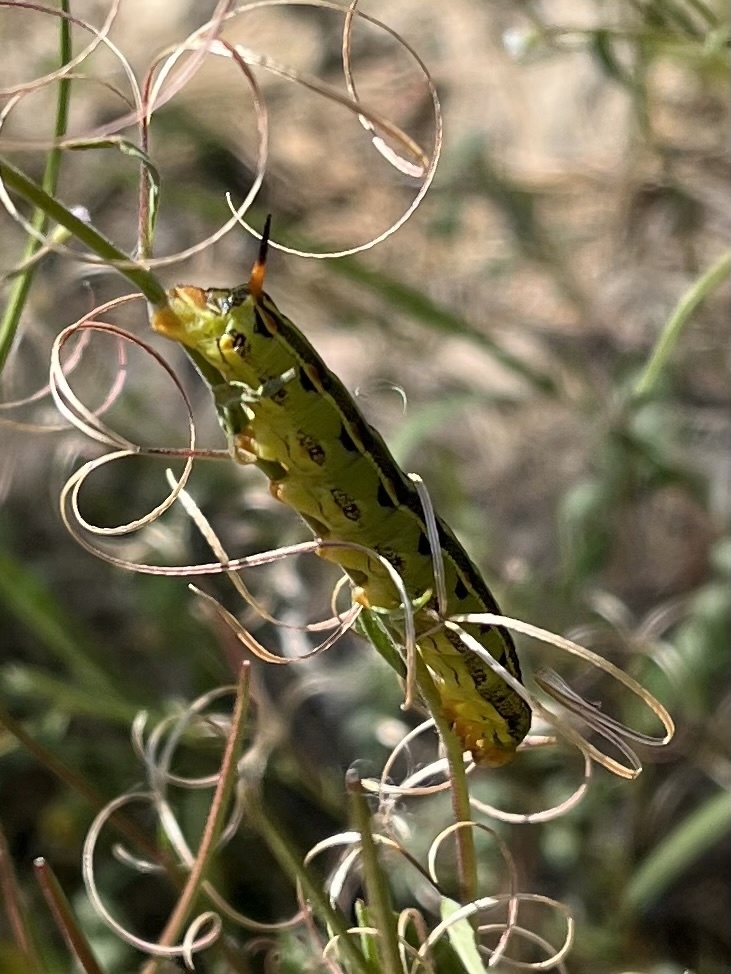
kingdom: Animalia
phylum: Arthropoda
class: Insecta
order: Lepidoptera
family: Sphingidae
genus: Hyles
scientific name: Hyles lineata
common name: White-lined sphinx
